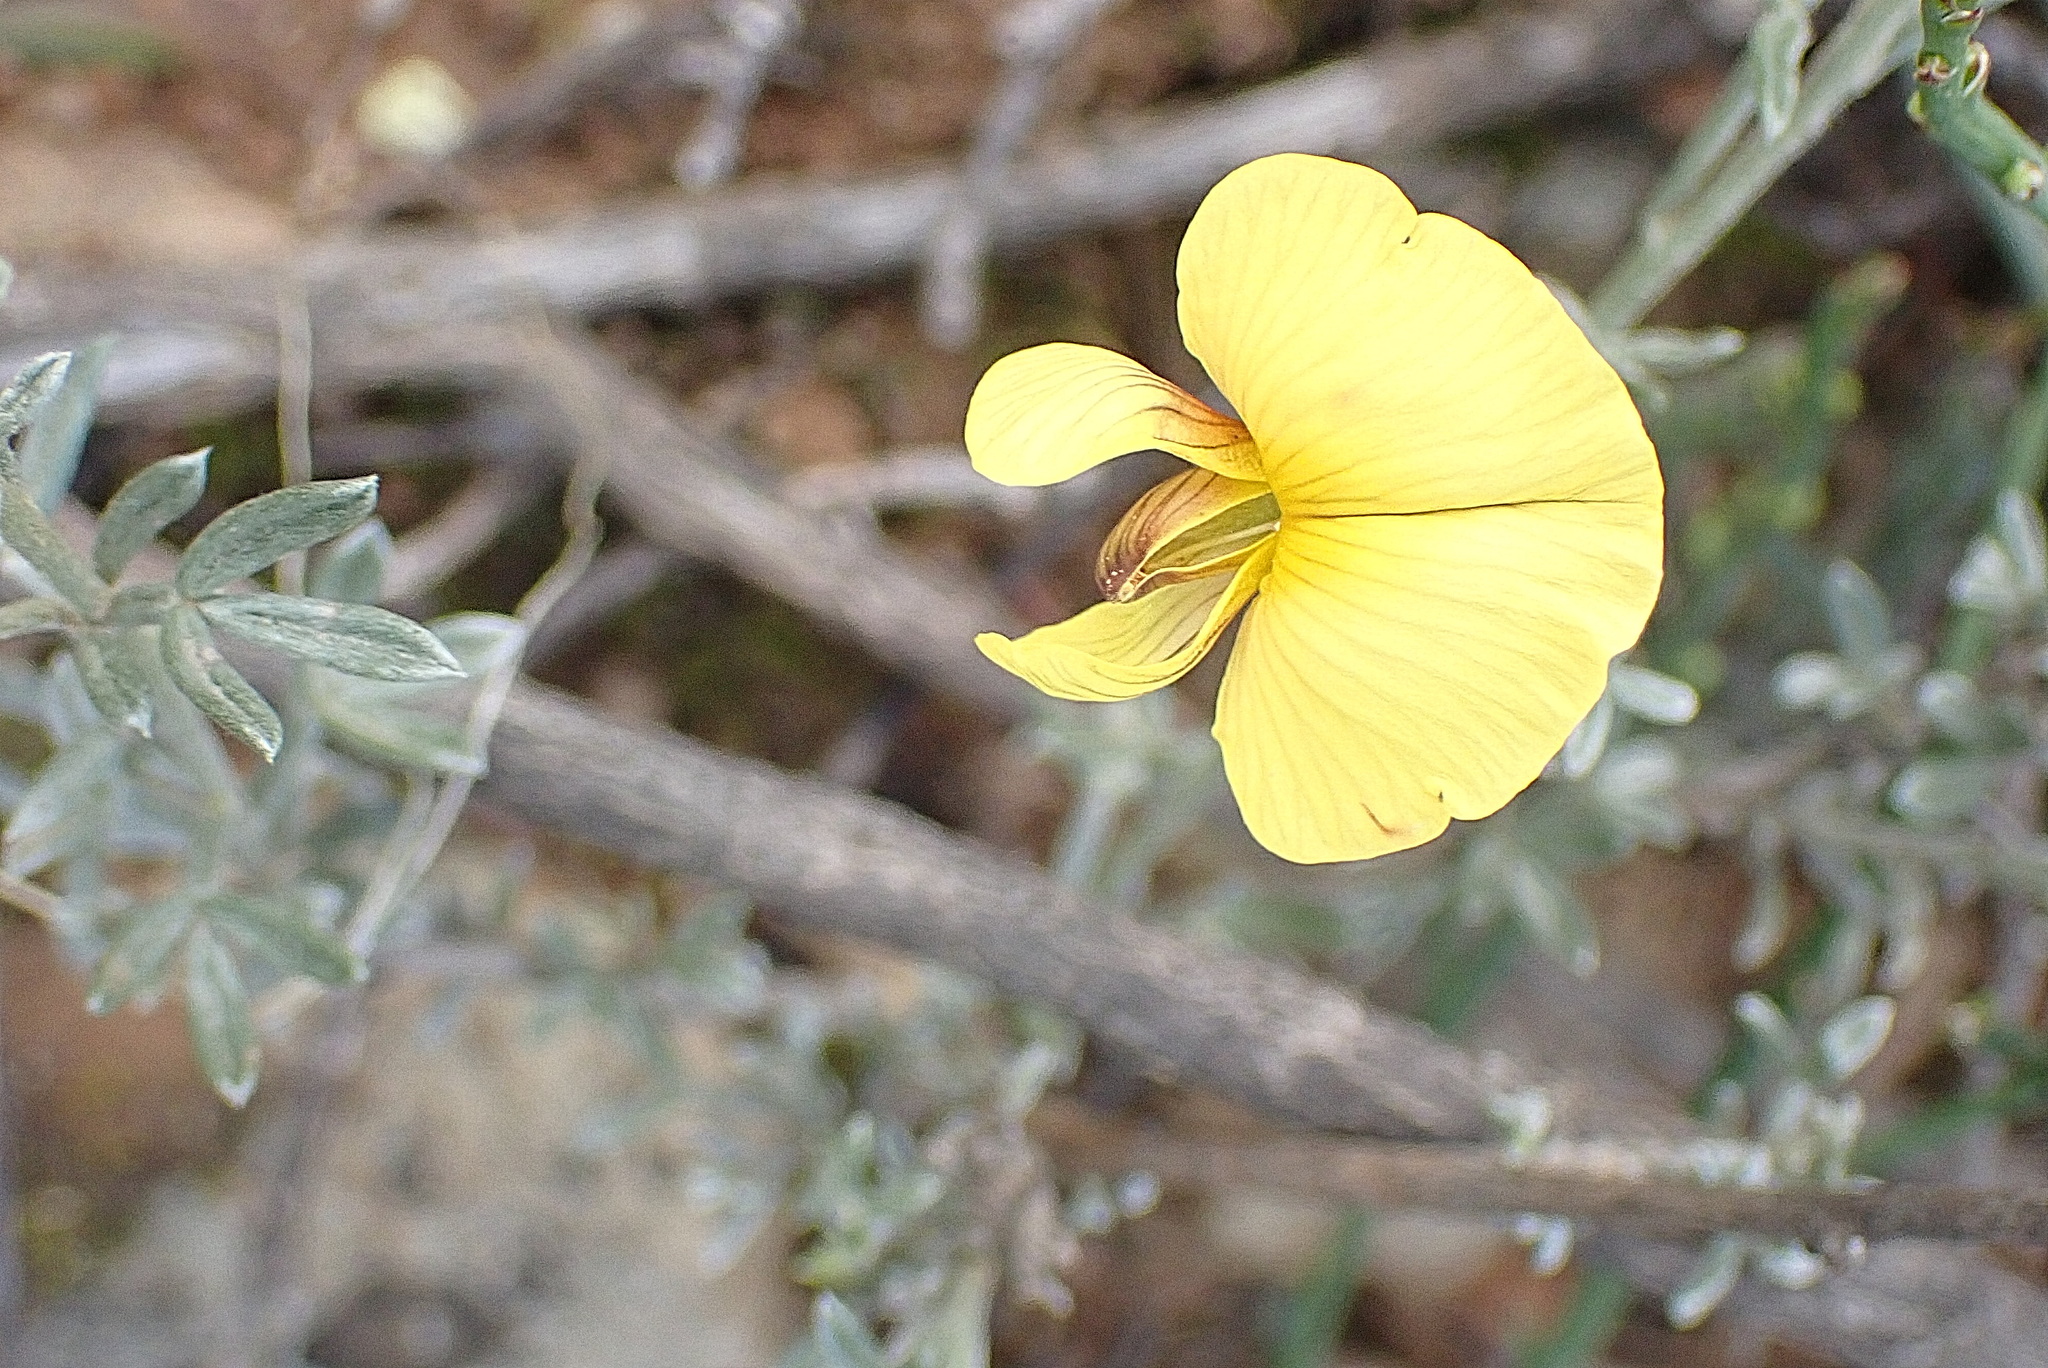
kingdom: Plantae
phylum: Tracheophyta
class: Magnoliopsida
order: Fabales
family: Fabaceae
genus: Lotononis
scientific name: Lotononis dahlgrenii
